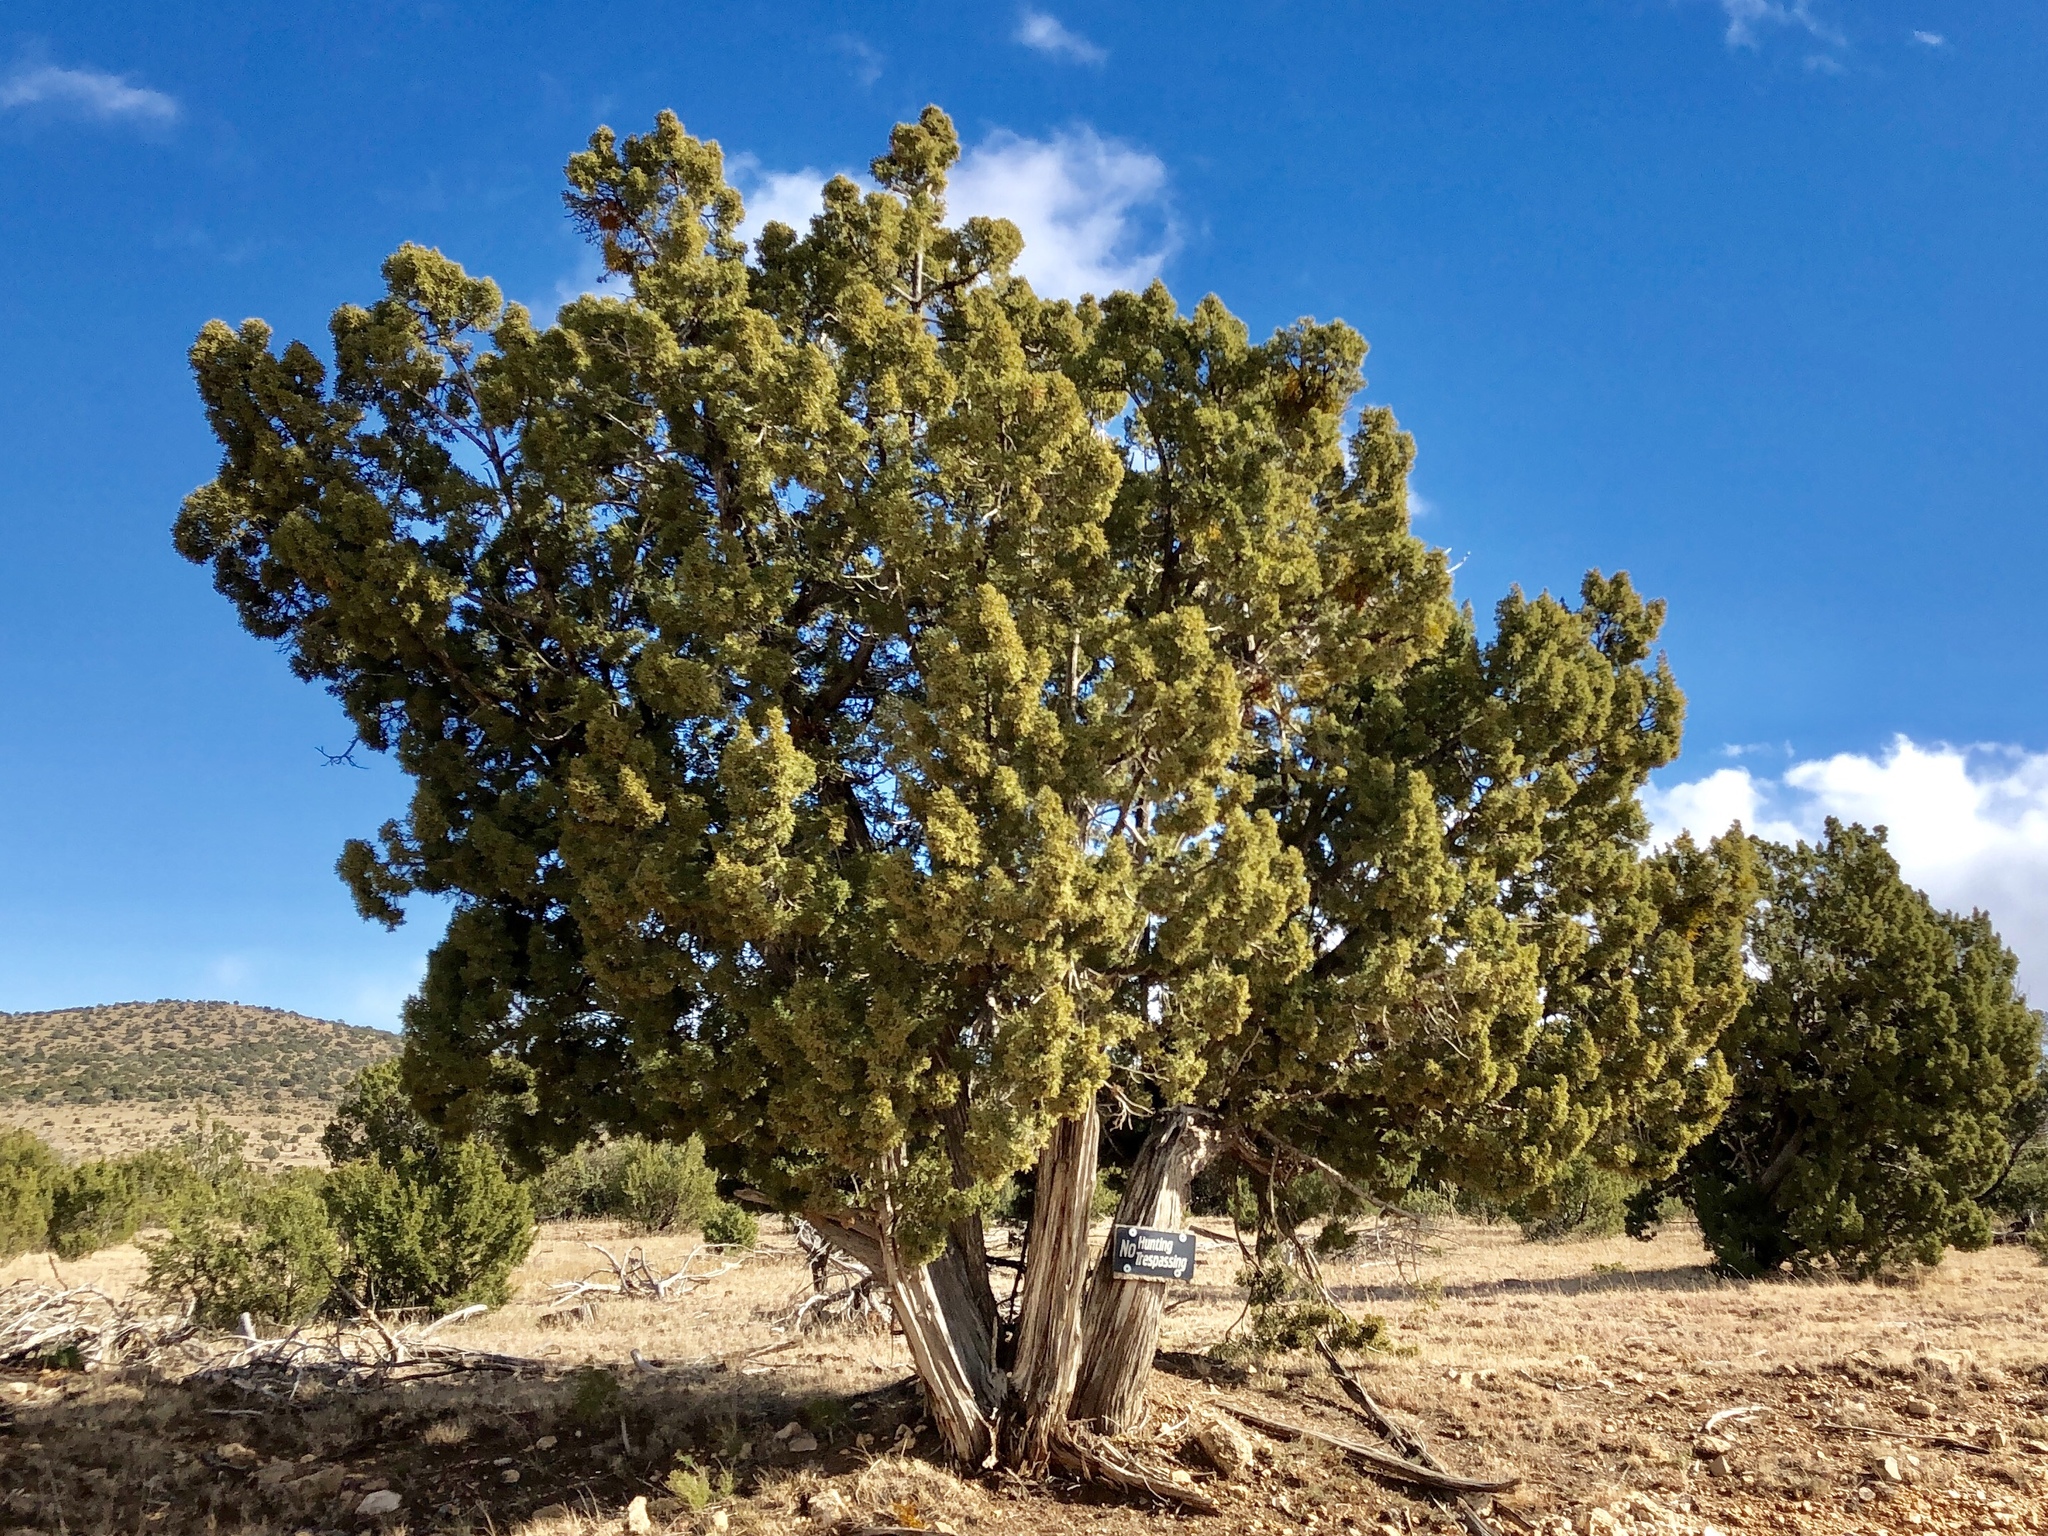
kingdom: Plantae
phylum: Tracheophyta
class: Pinopsida
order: Pinales
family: Cupressaceae
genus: Juniperus
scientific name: Juniperus monosperma
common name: One-seed juniper
